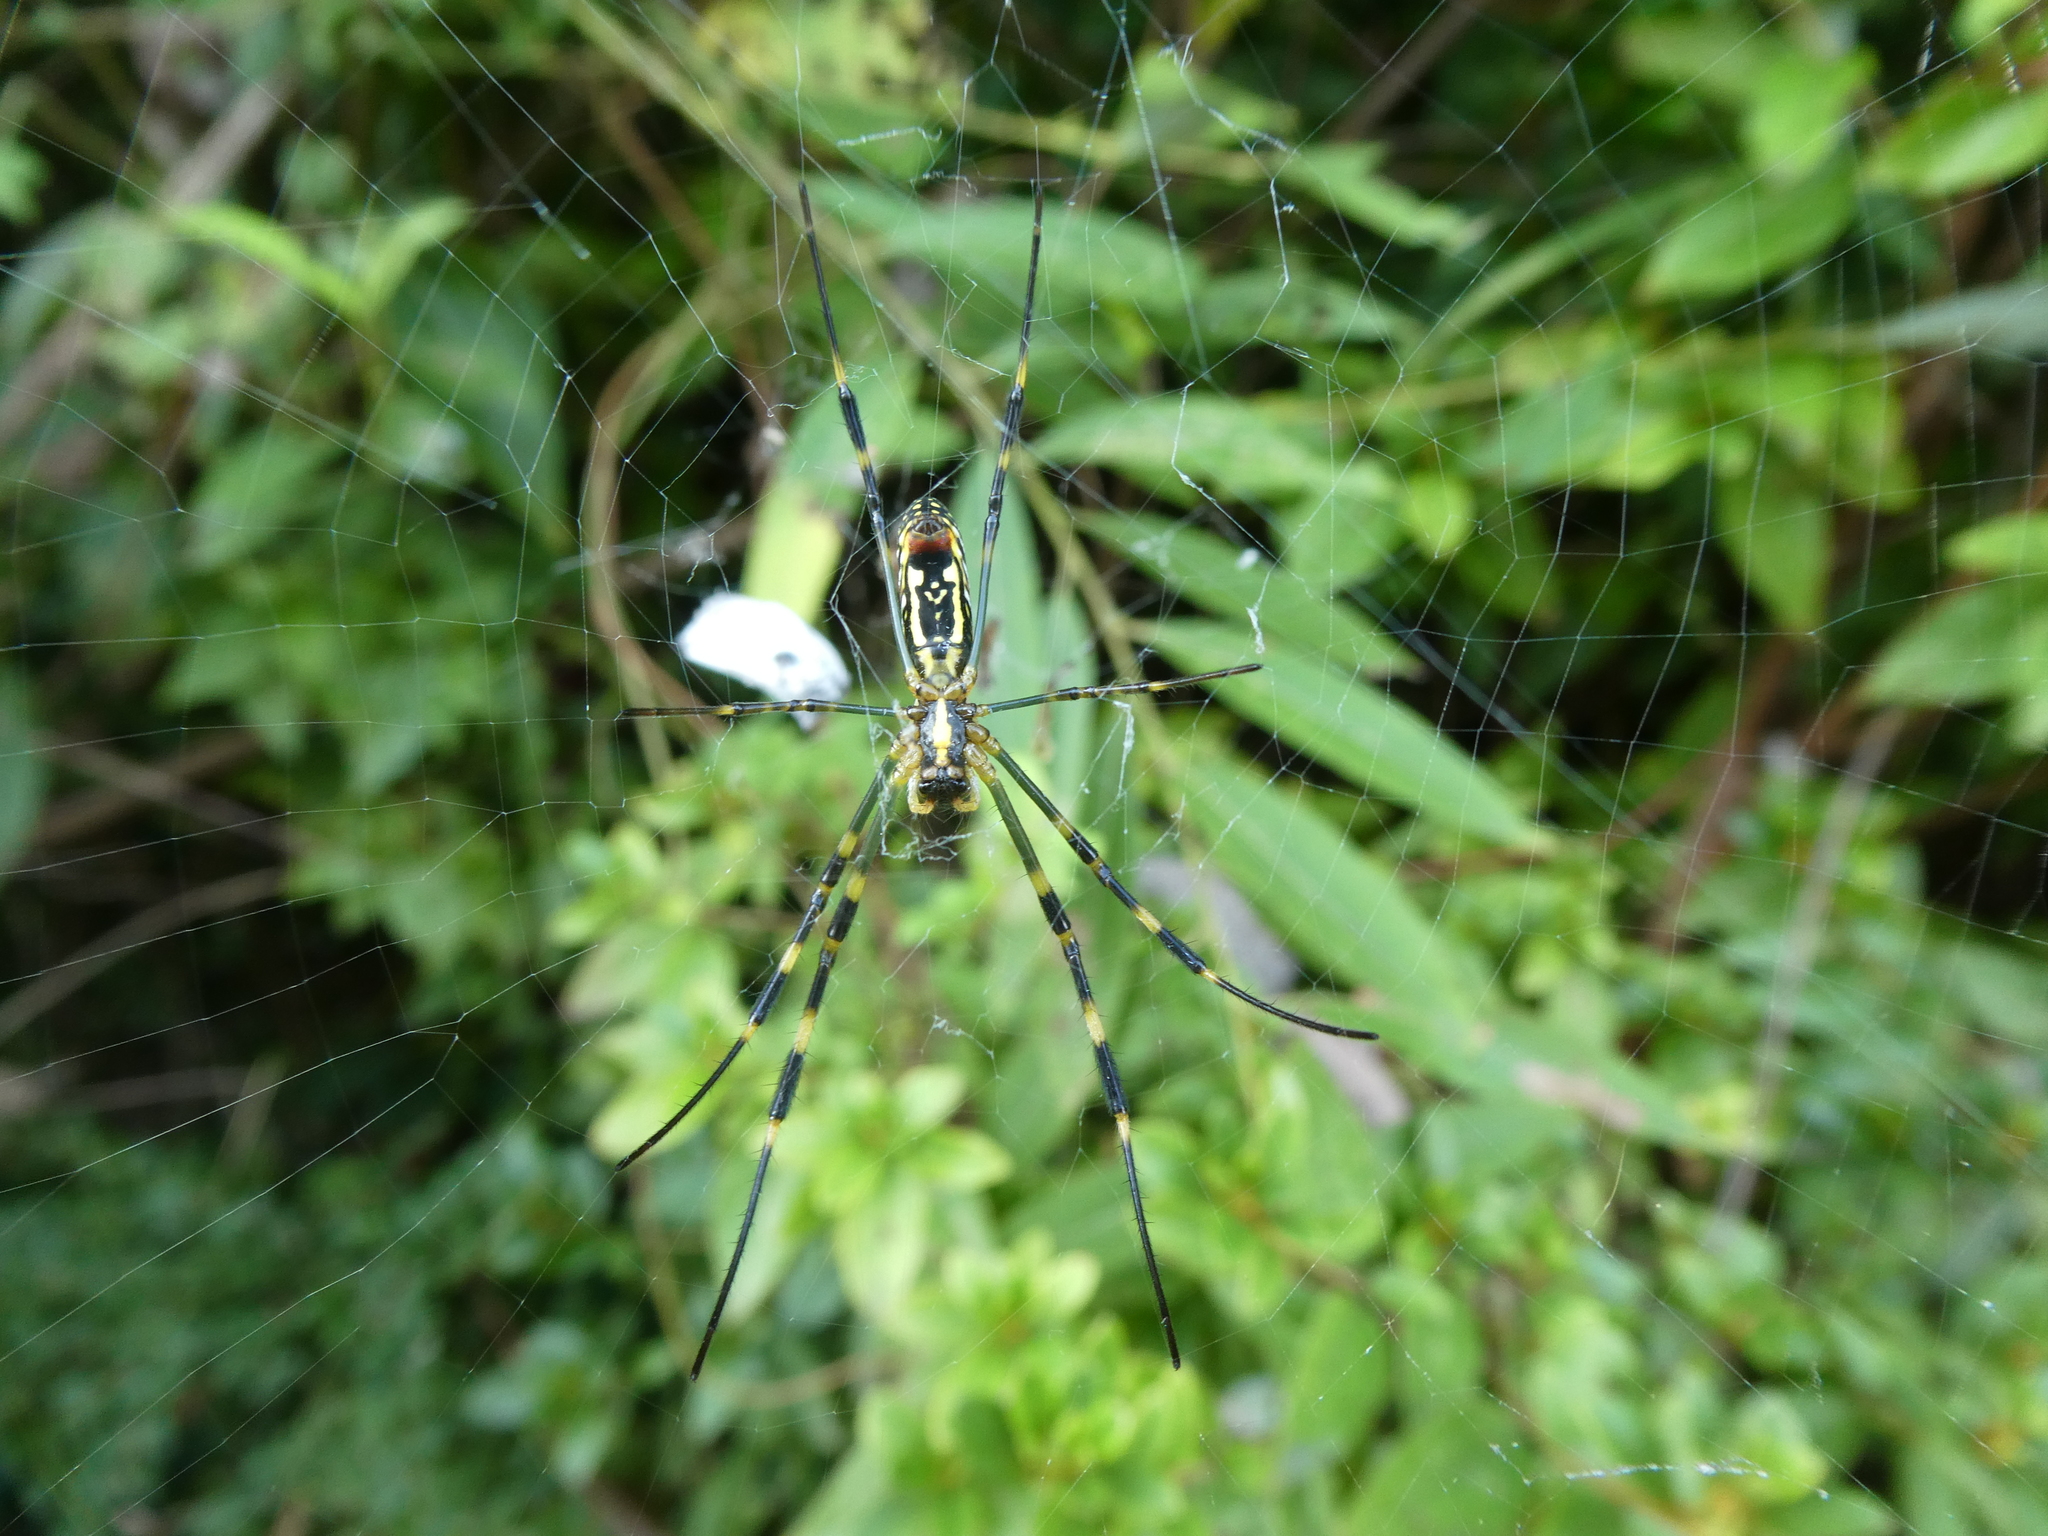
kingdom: Animalia
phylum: Arthropoda
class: Arachnida
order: Araneae
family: Araneidae
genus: Trichonephila
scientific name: Trichonephila clavata
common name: Jorō spider
